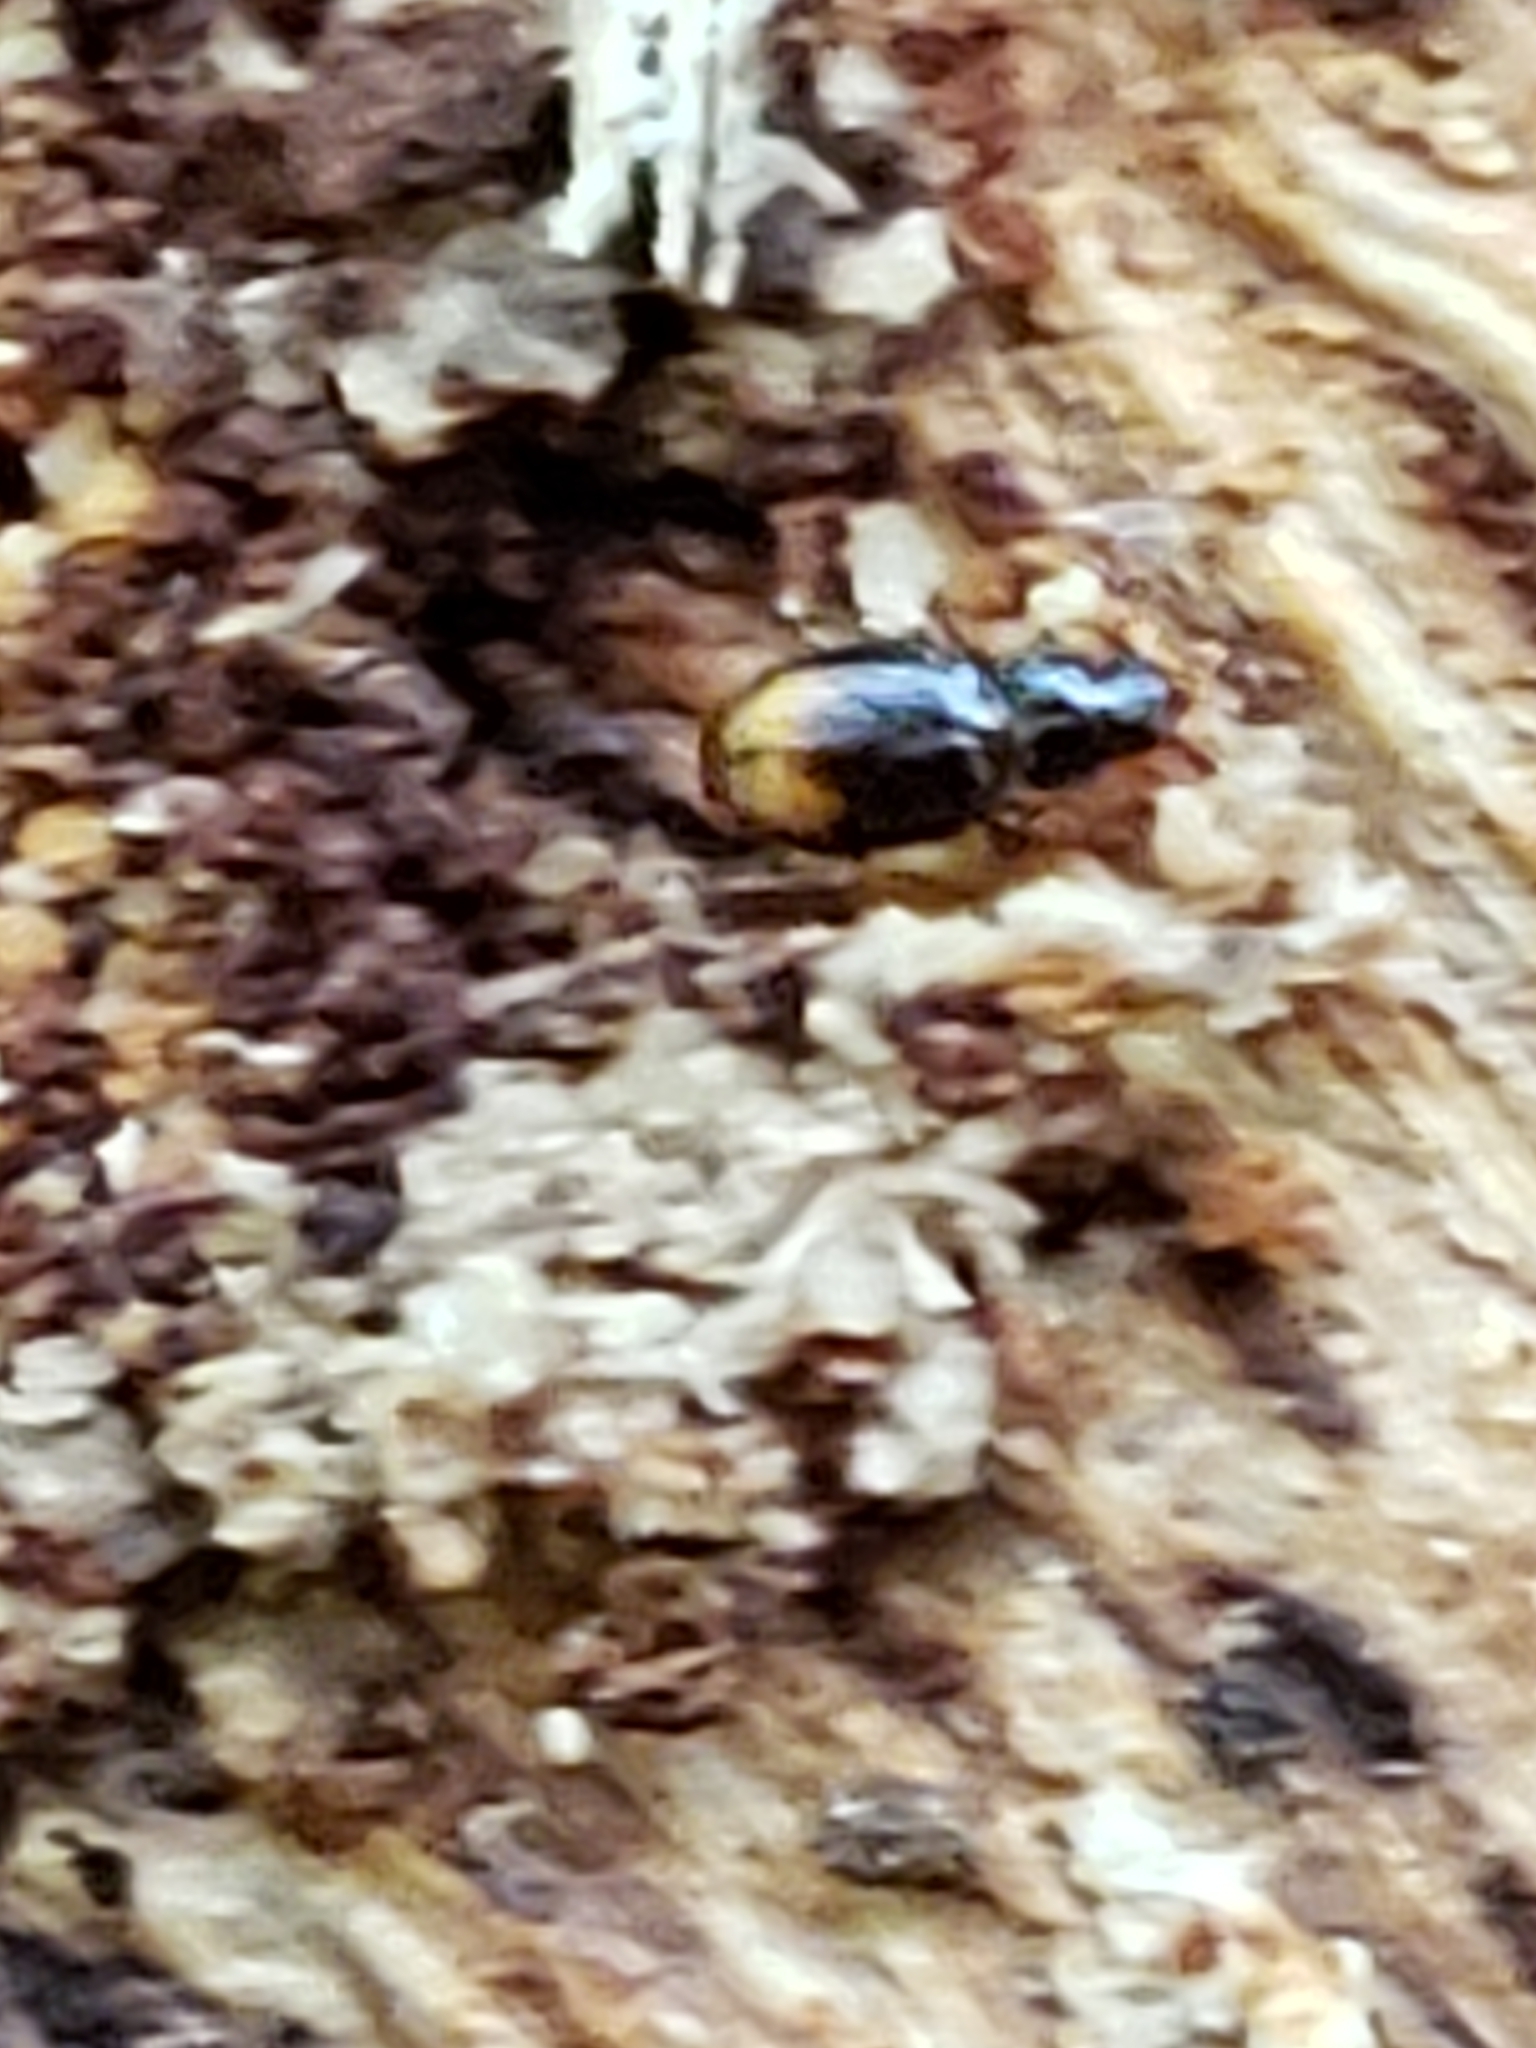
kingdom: Animalia
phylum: Arthropoda
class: Insecta
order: Coleoptera
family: Carabidae
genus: Mioptachys
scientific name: Mioptachys flavicauda
